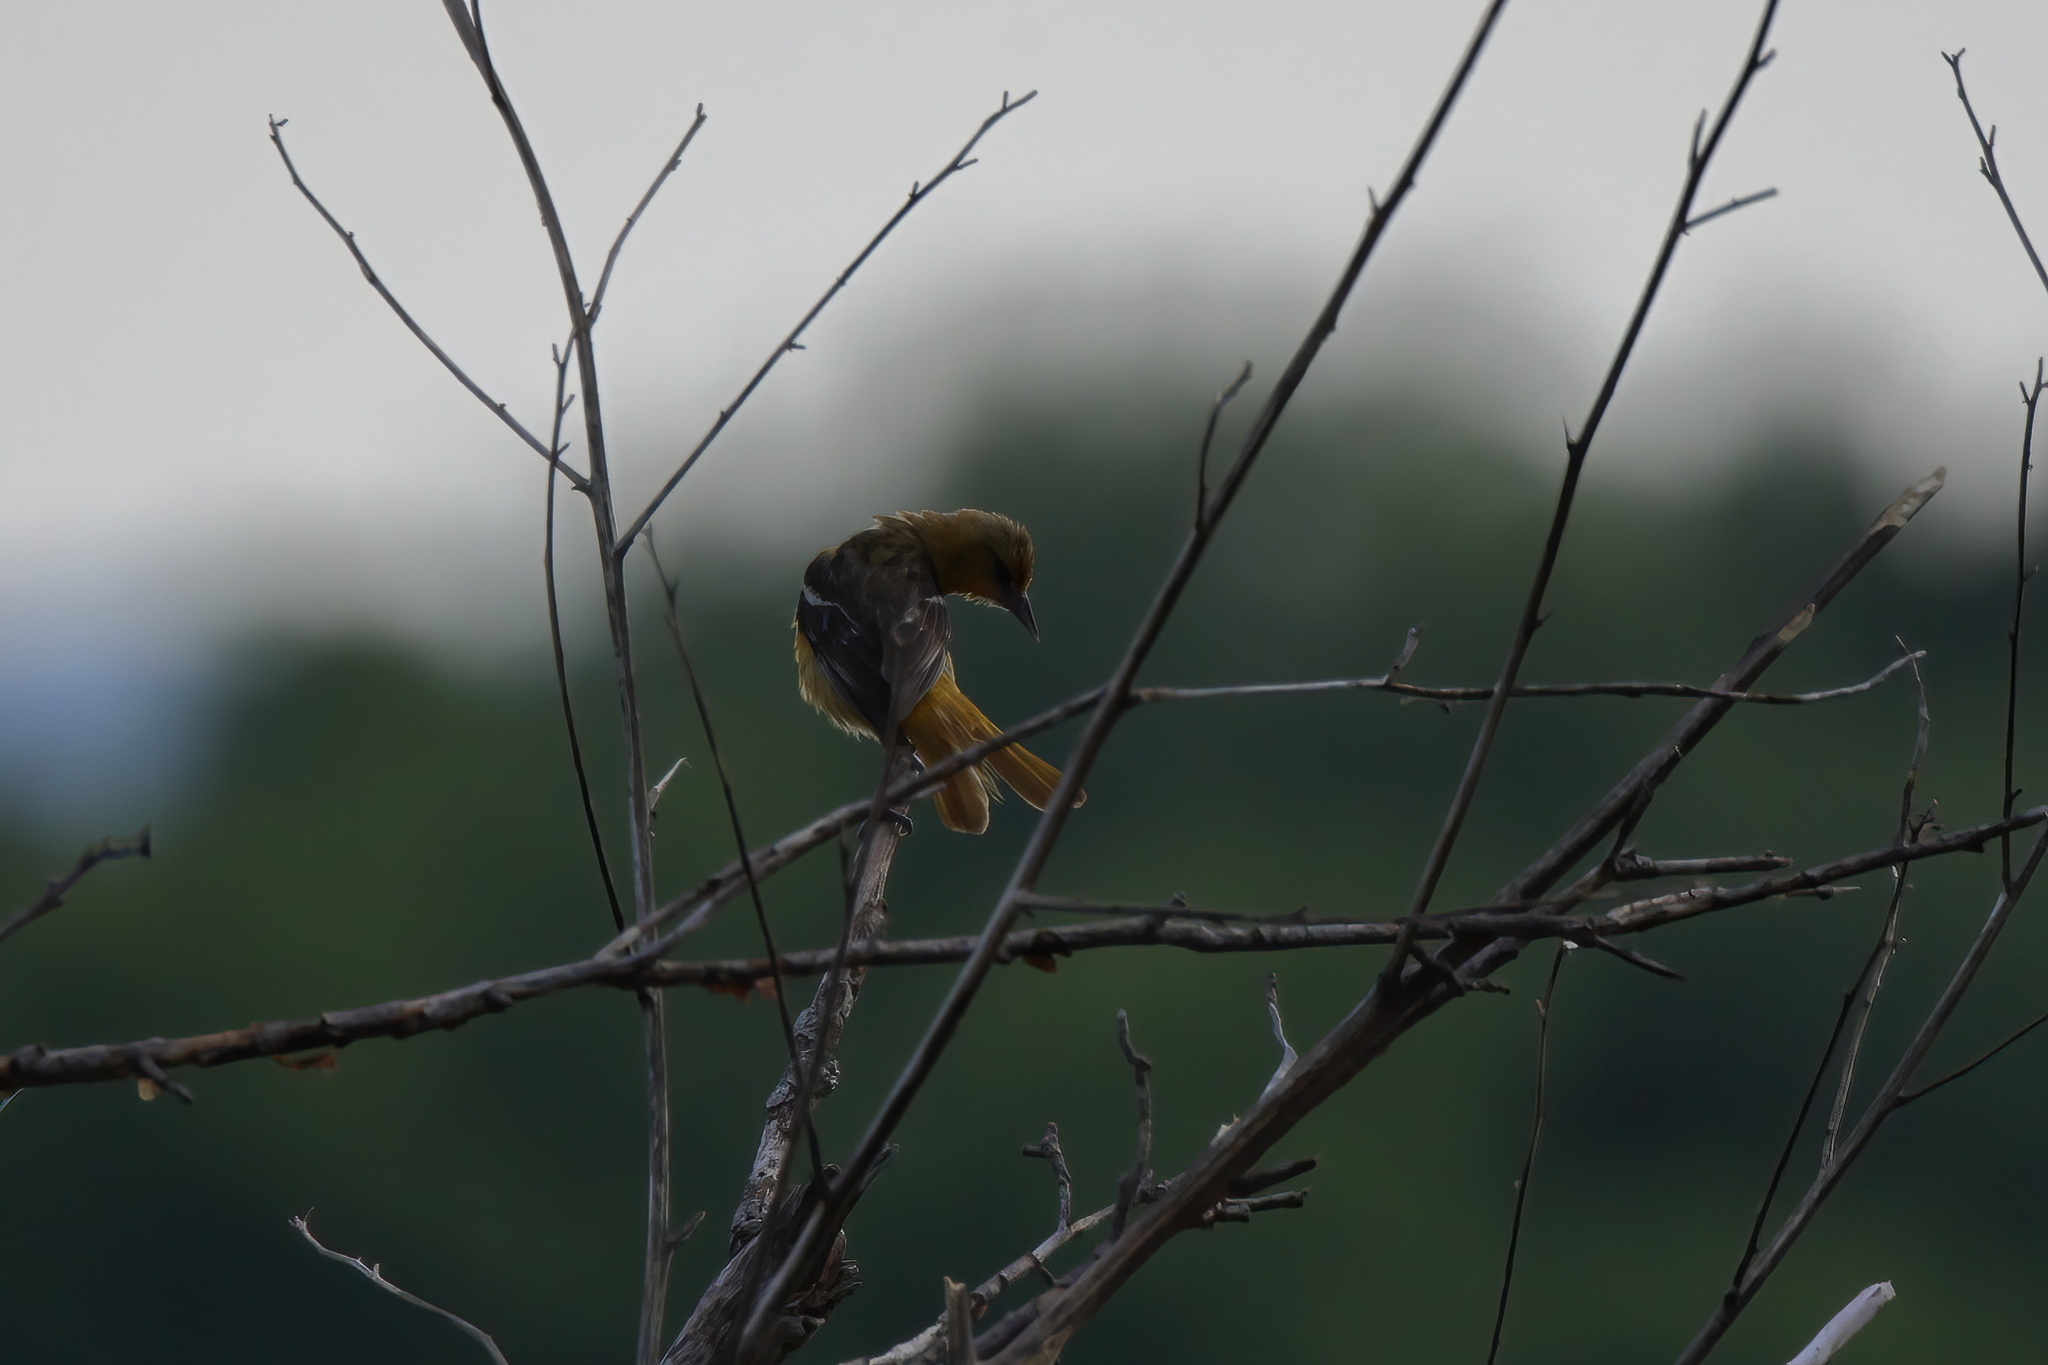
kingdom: Animalia
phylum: Chordata
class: Aves
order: Passeriformes
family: Icteridae
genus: Icterus
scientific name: Icterus galbula
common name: Baltimore oriole
